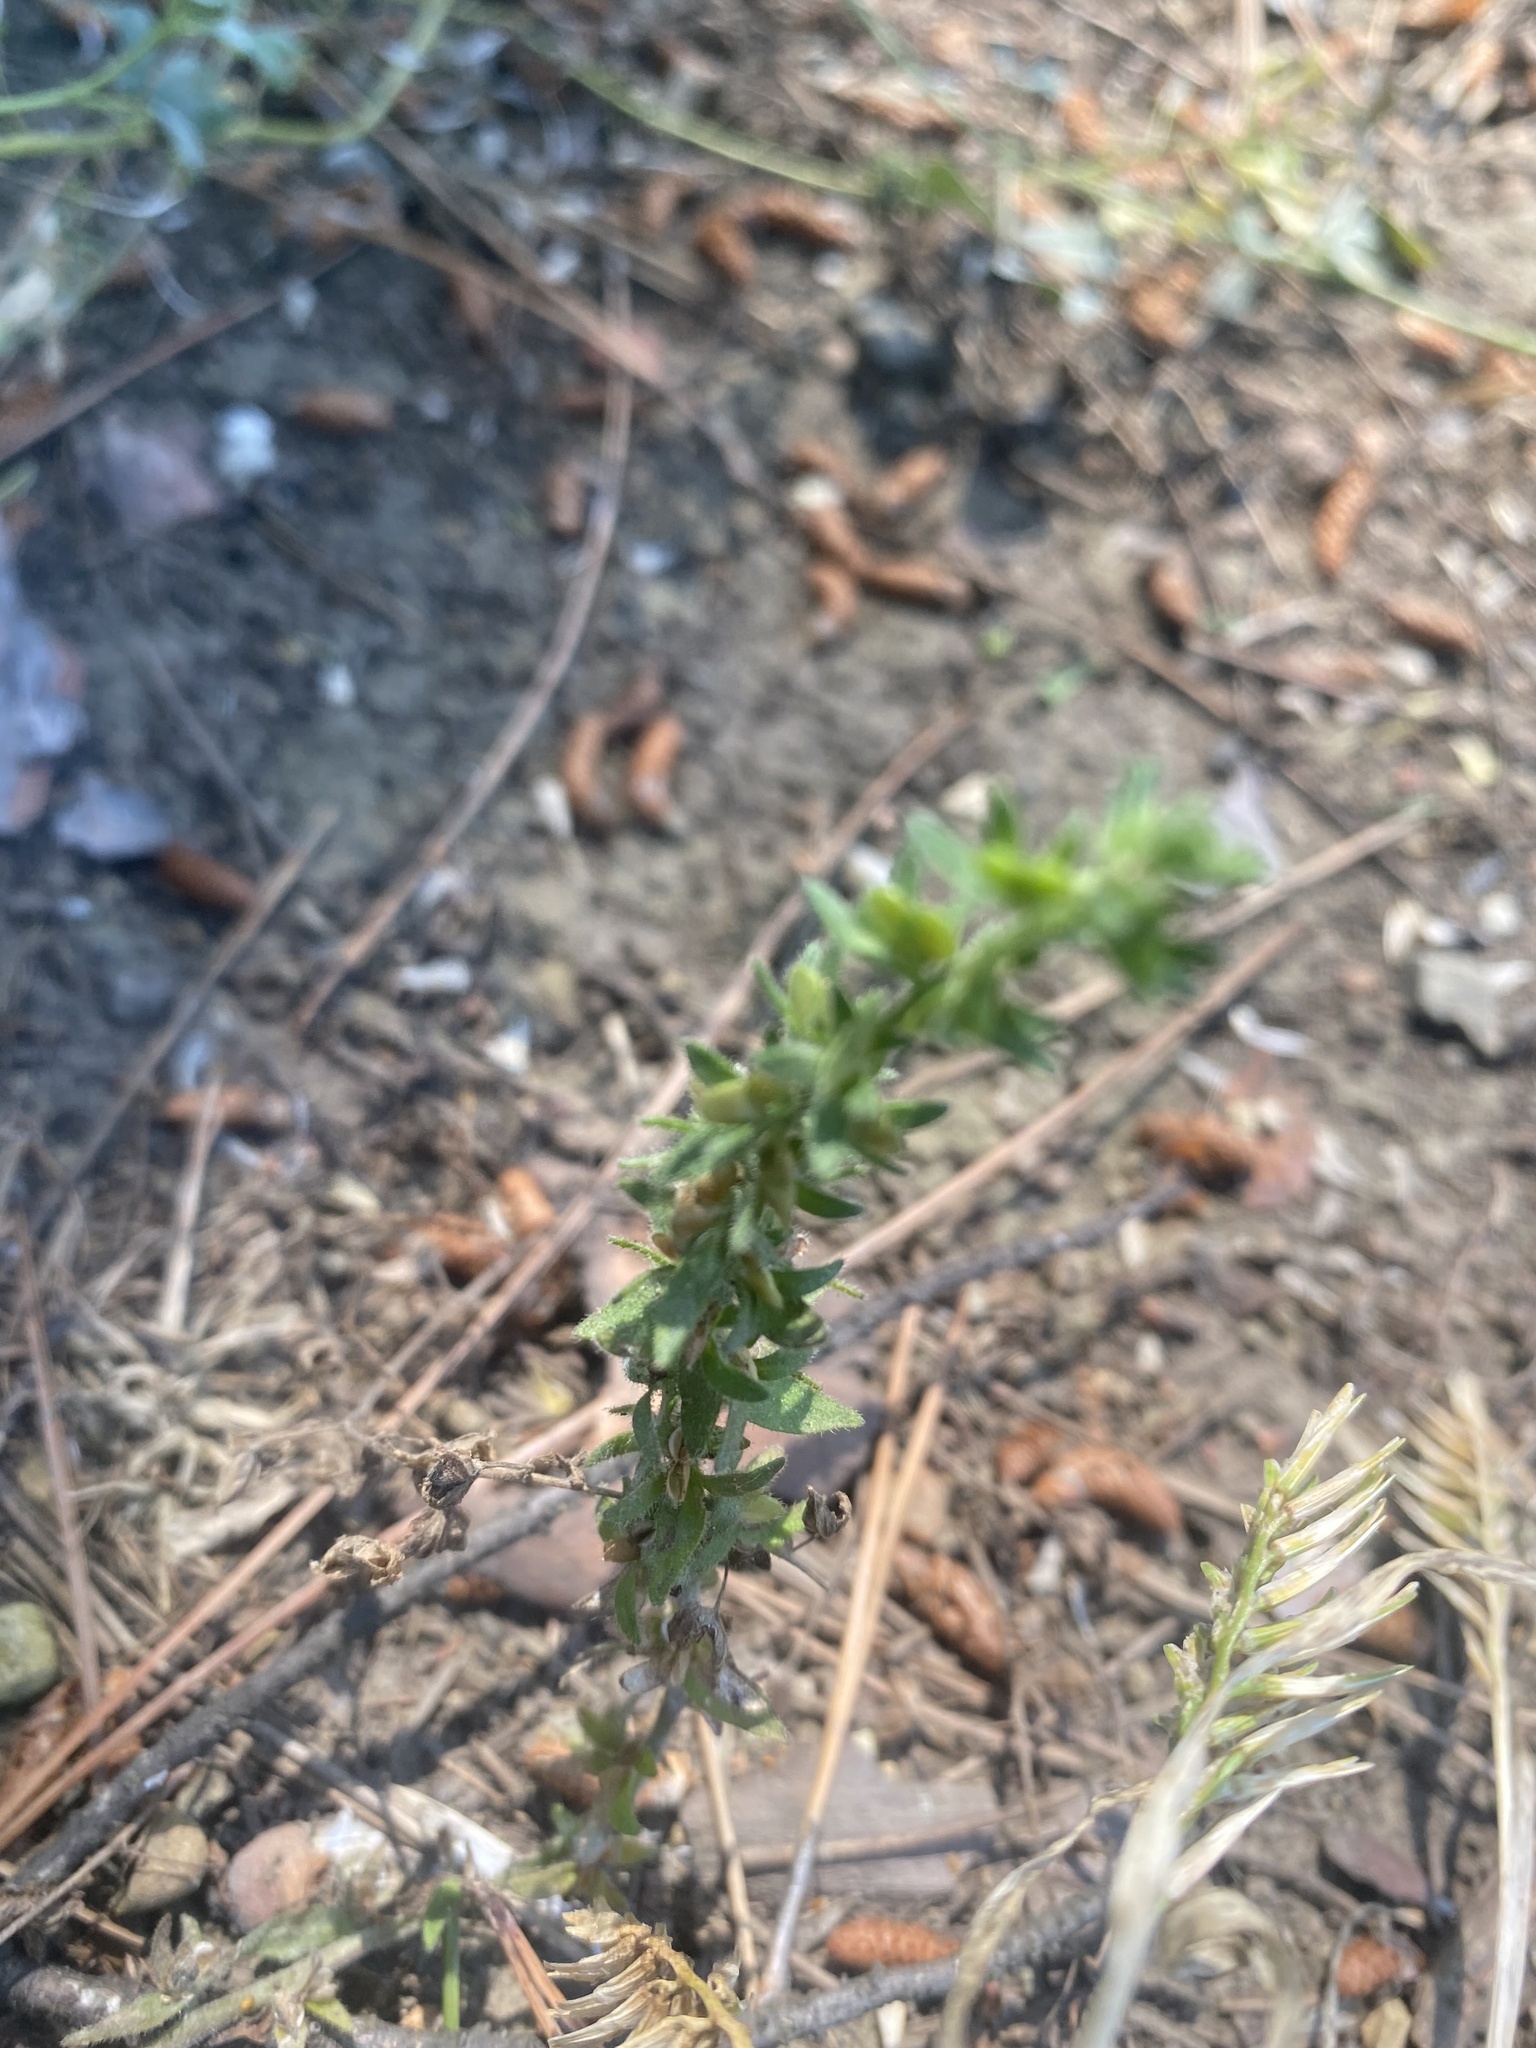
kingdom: Plantae
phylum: Tracheophyta
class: Magnoliopsida
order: Lamiales
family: Plantaginaceae
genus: Veronica
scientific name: Veronica arvensis
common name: Corn speedwell
